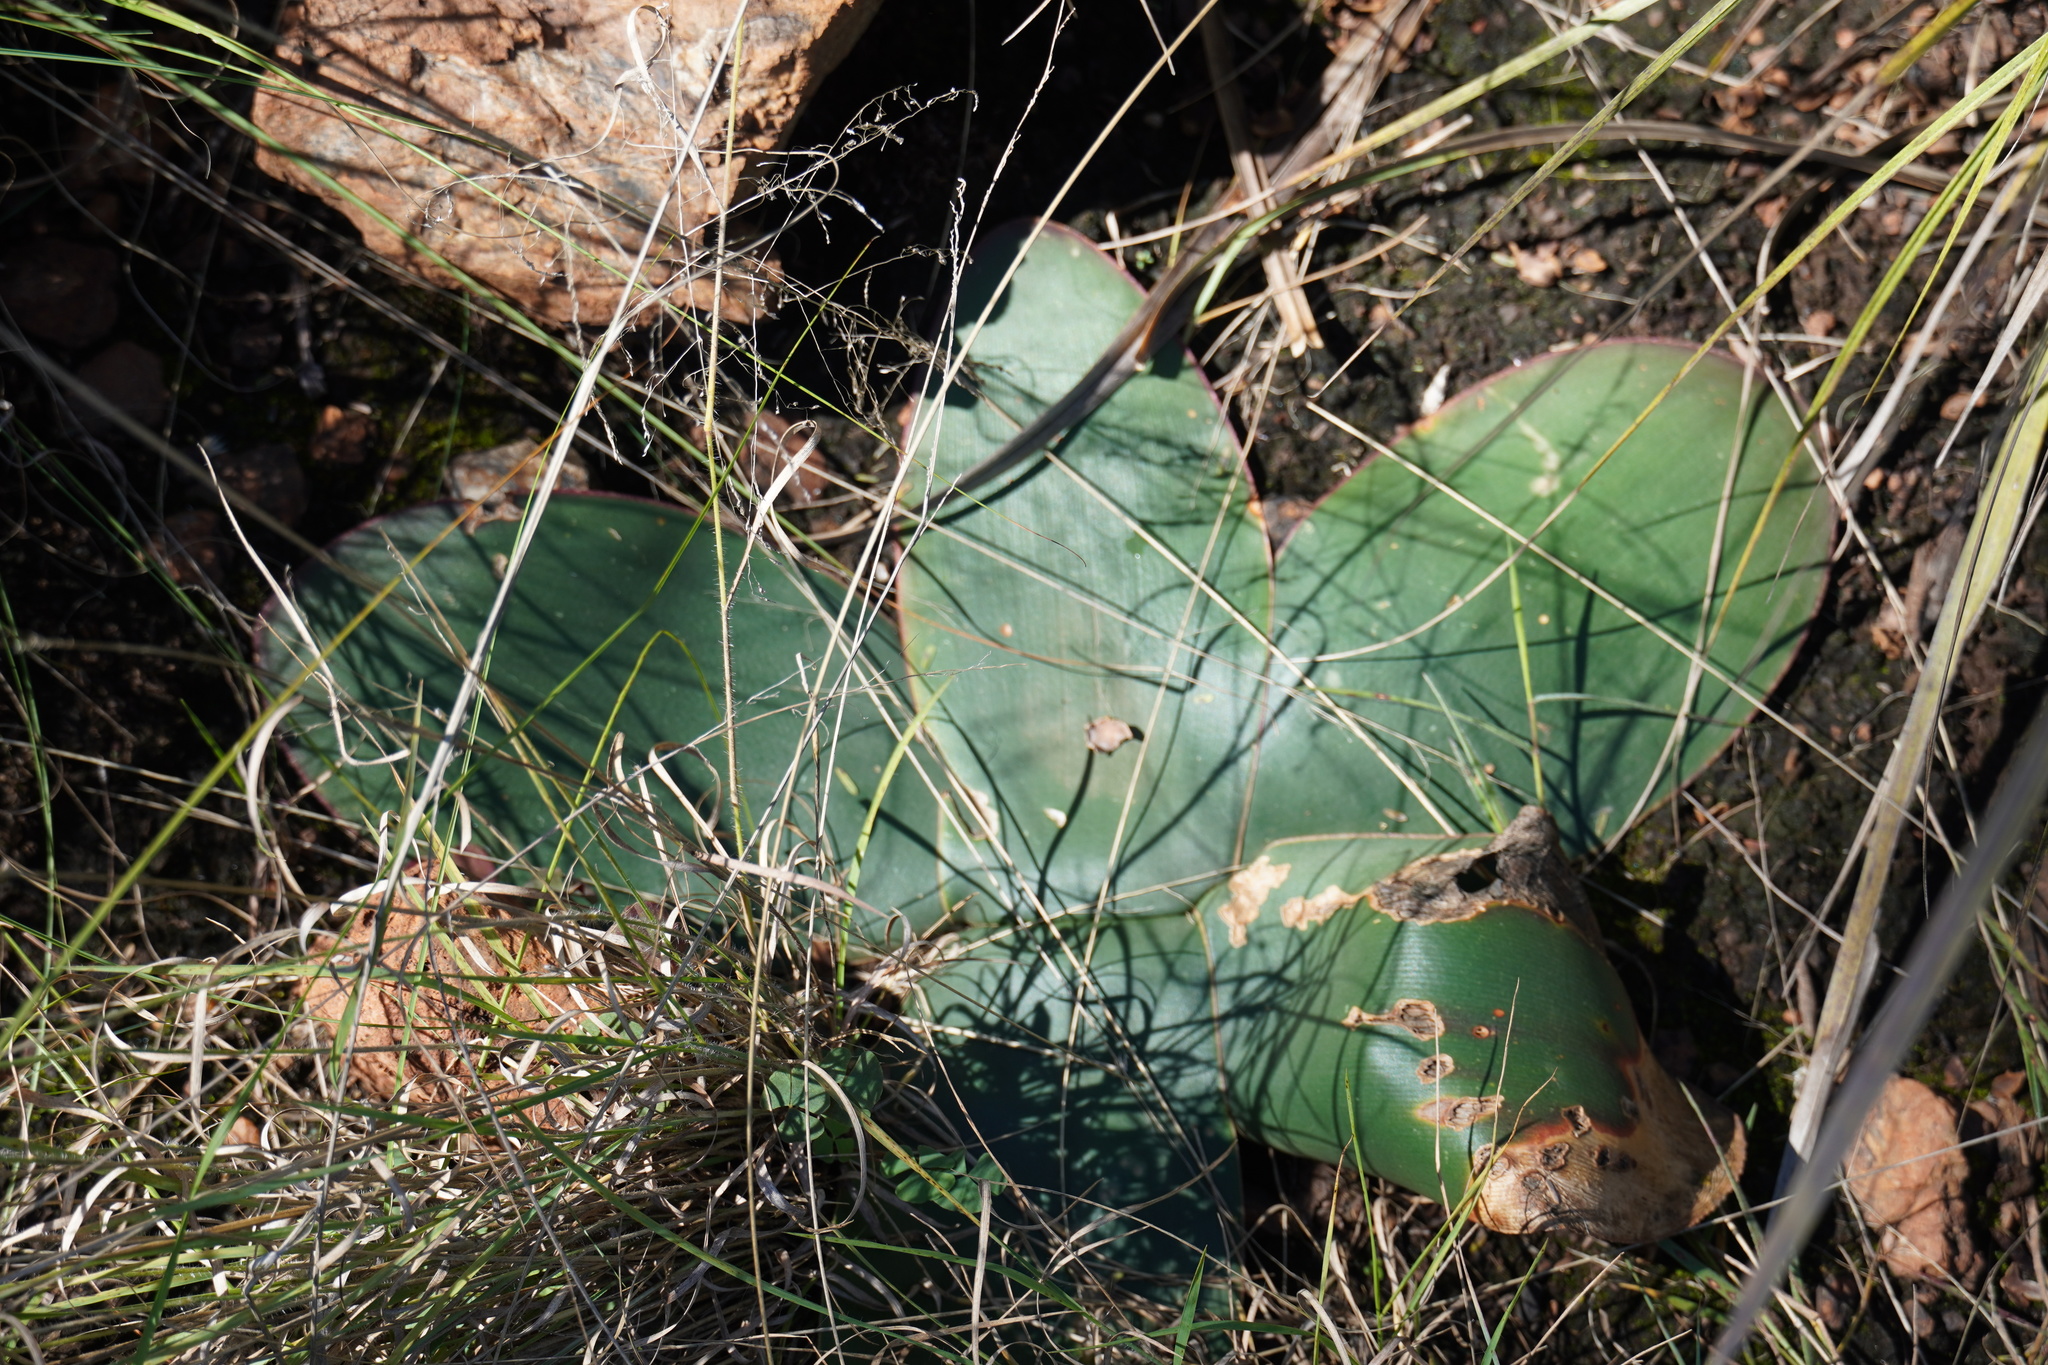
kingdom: Plantae
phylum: Tracheophyta
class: Liliopsida
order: Asparagales
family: Amaryllidaceae
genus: Brunsvigia
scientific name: Brunsvigia radulosa
